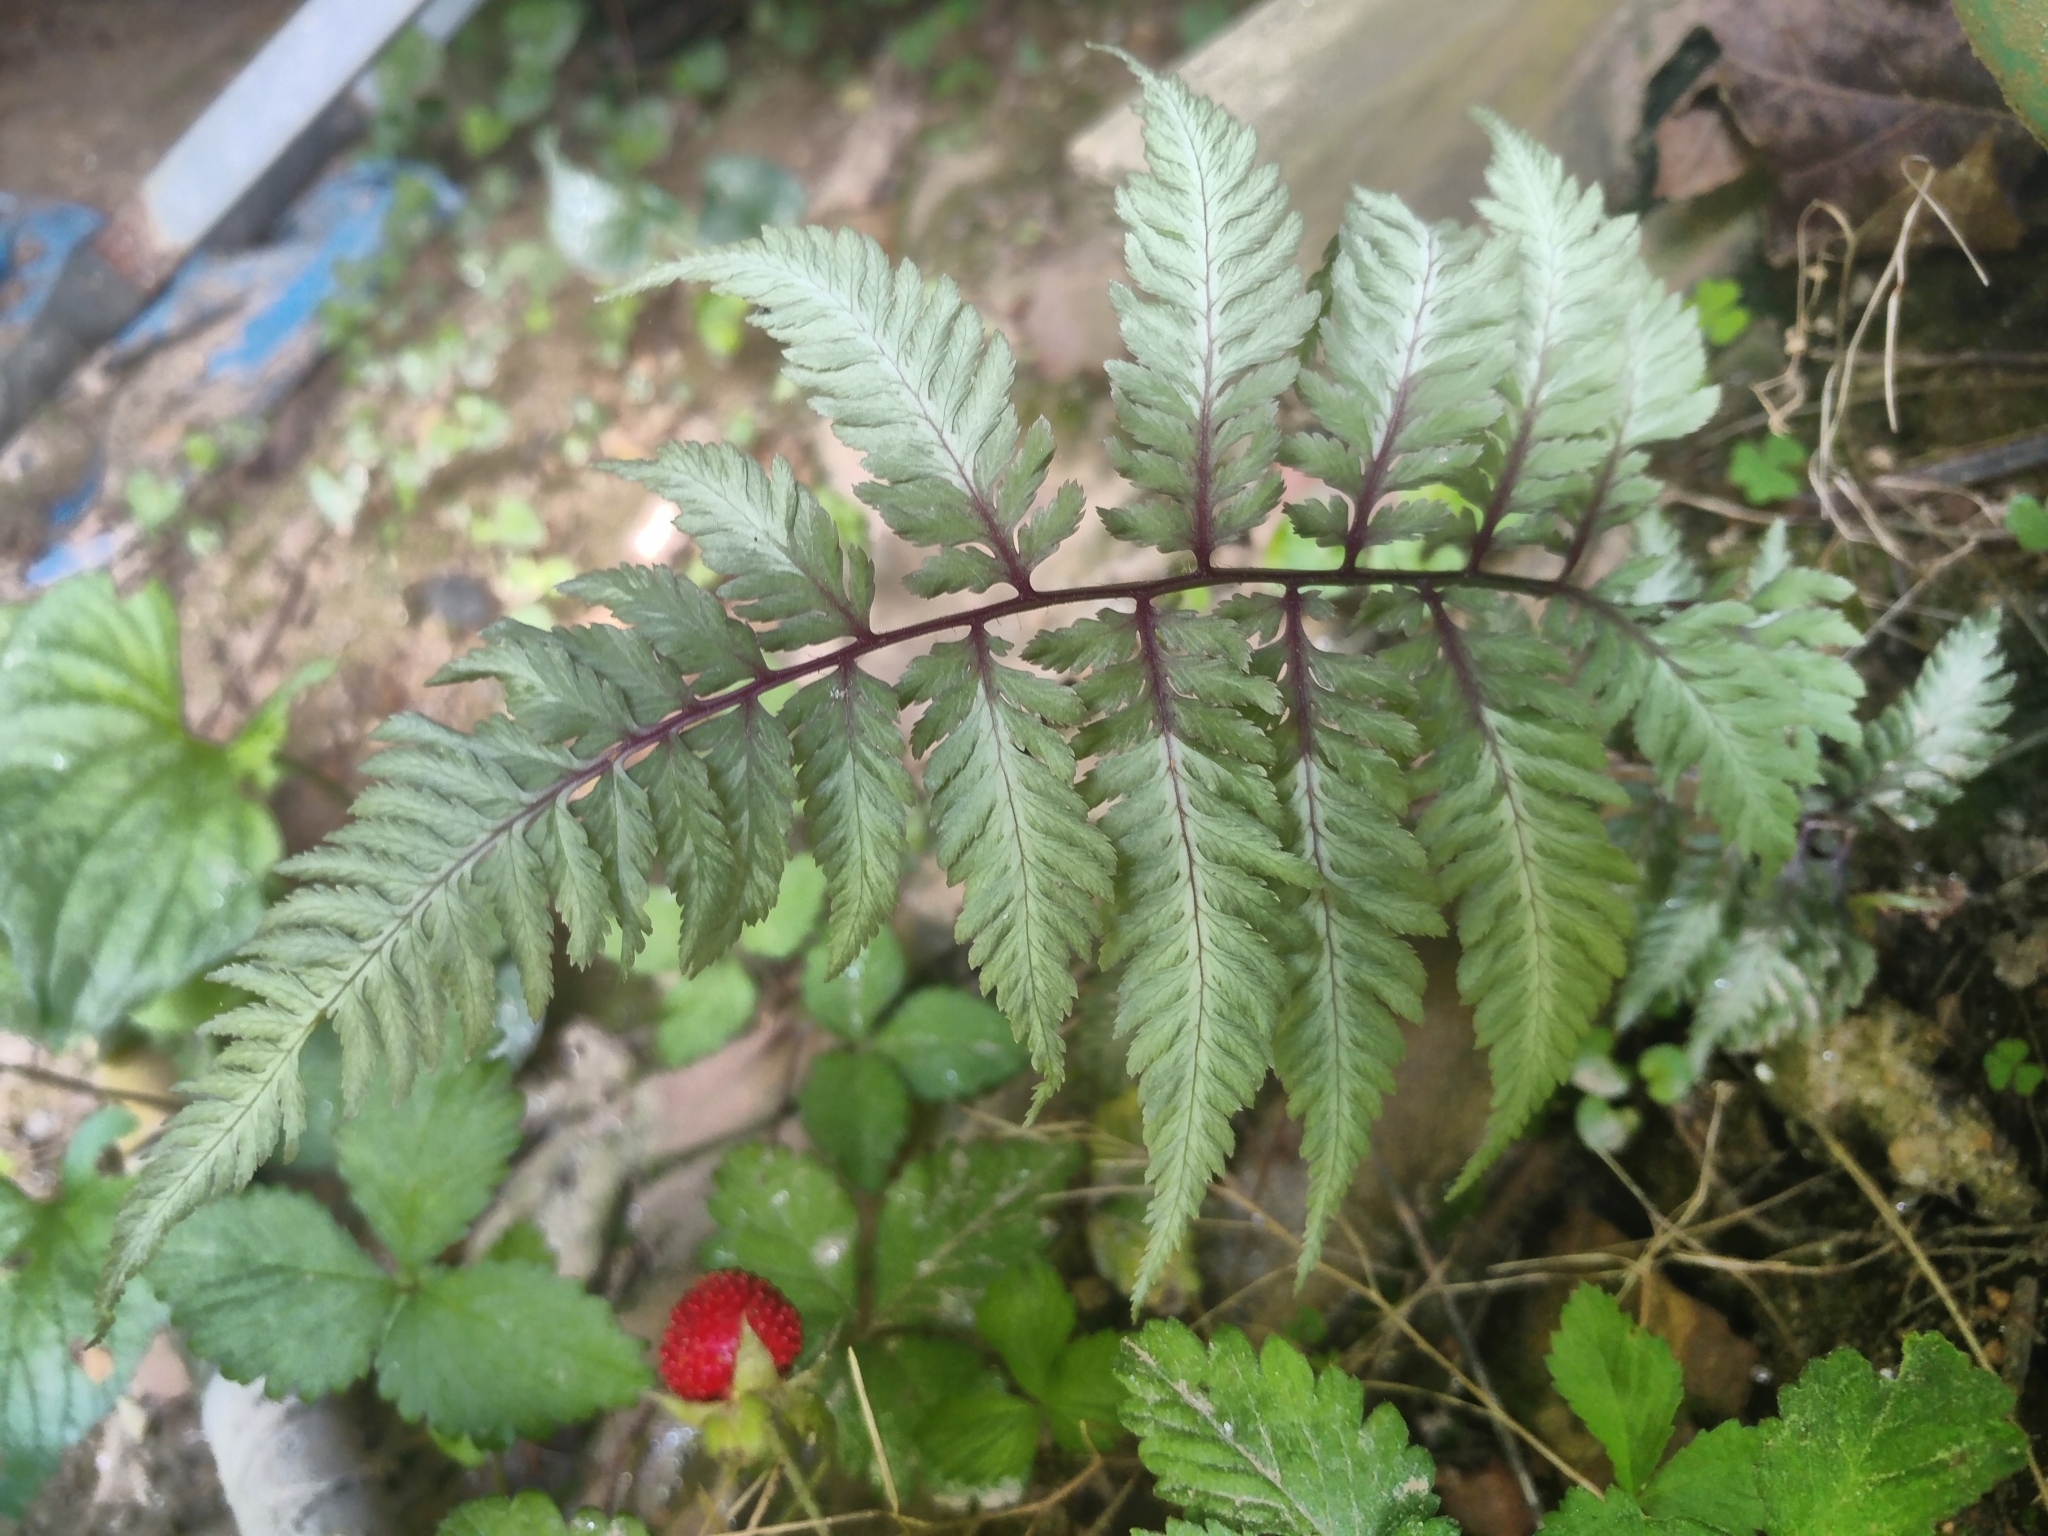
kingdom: Plantae
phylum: Tracheophyta
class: Polypodiopsida
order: Polypodiales
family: Athyriaceae
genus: Anisocampium
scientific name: Anisocampium niponicum
